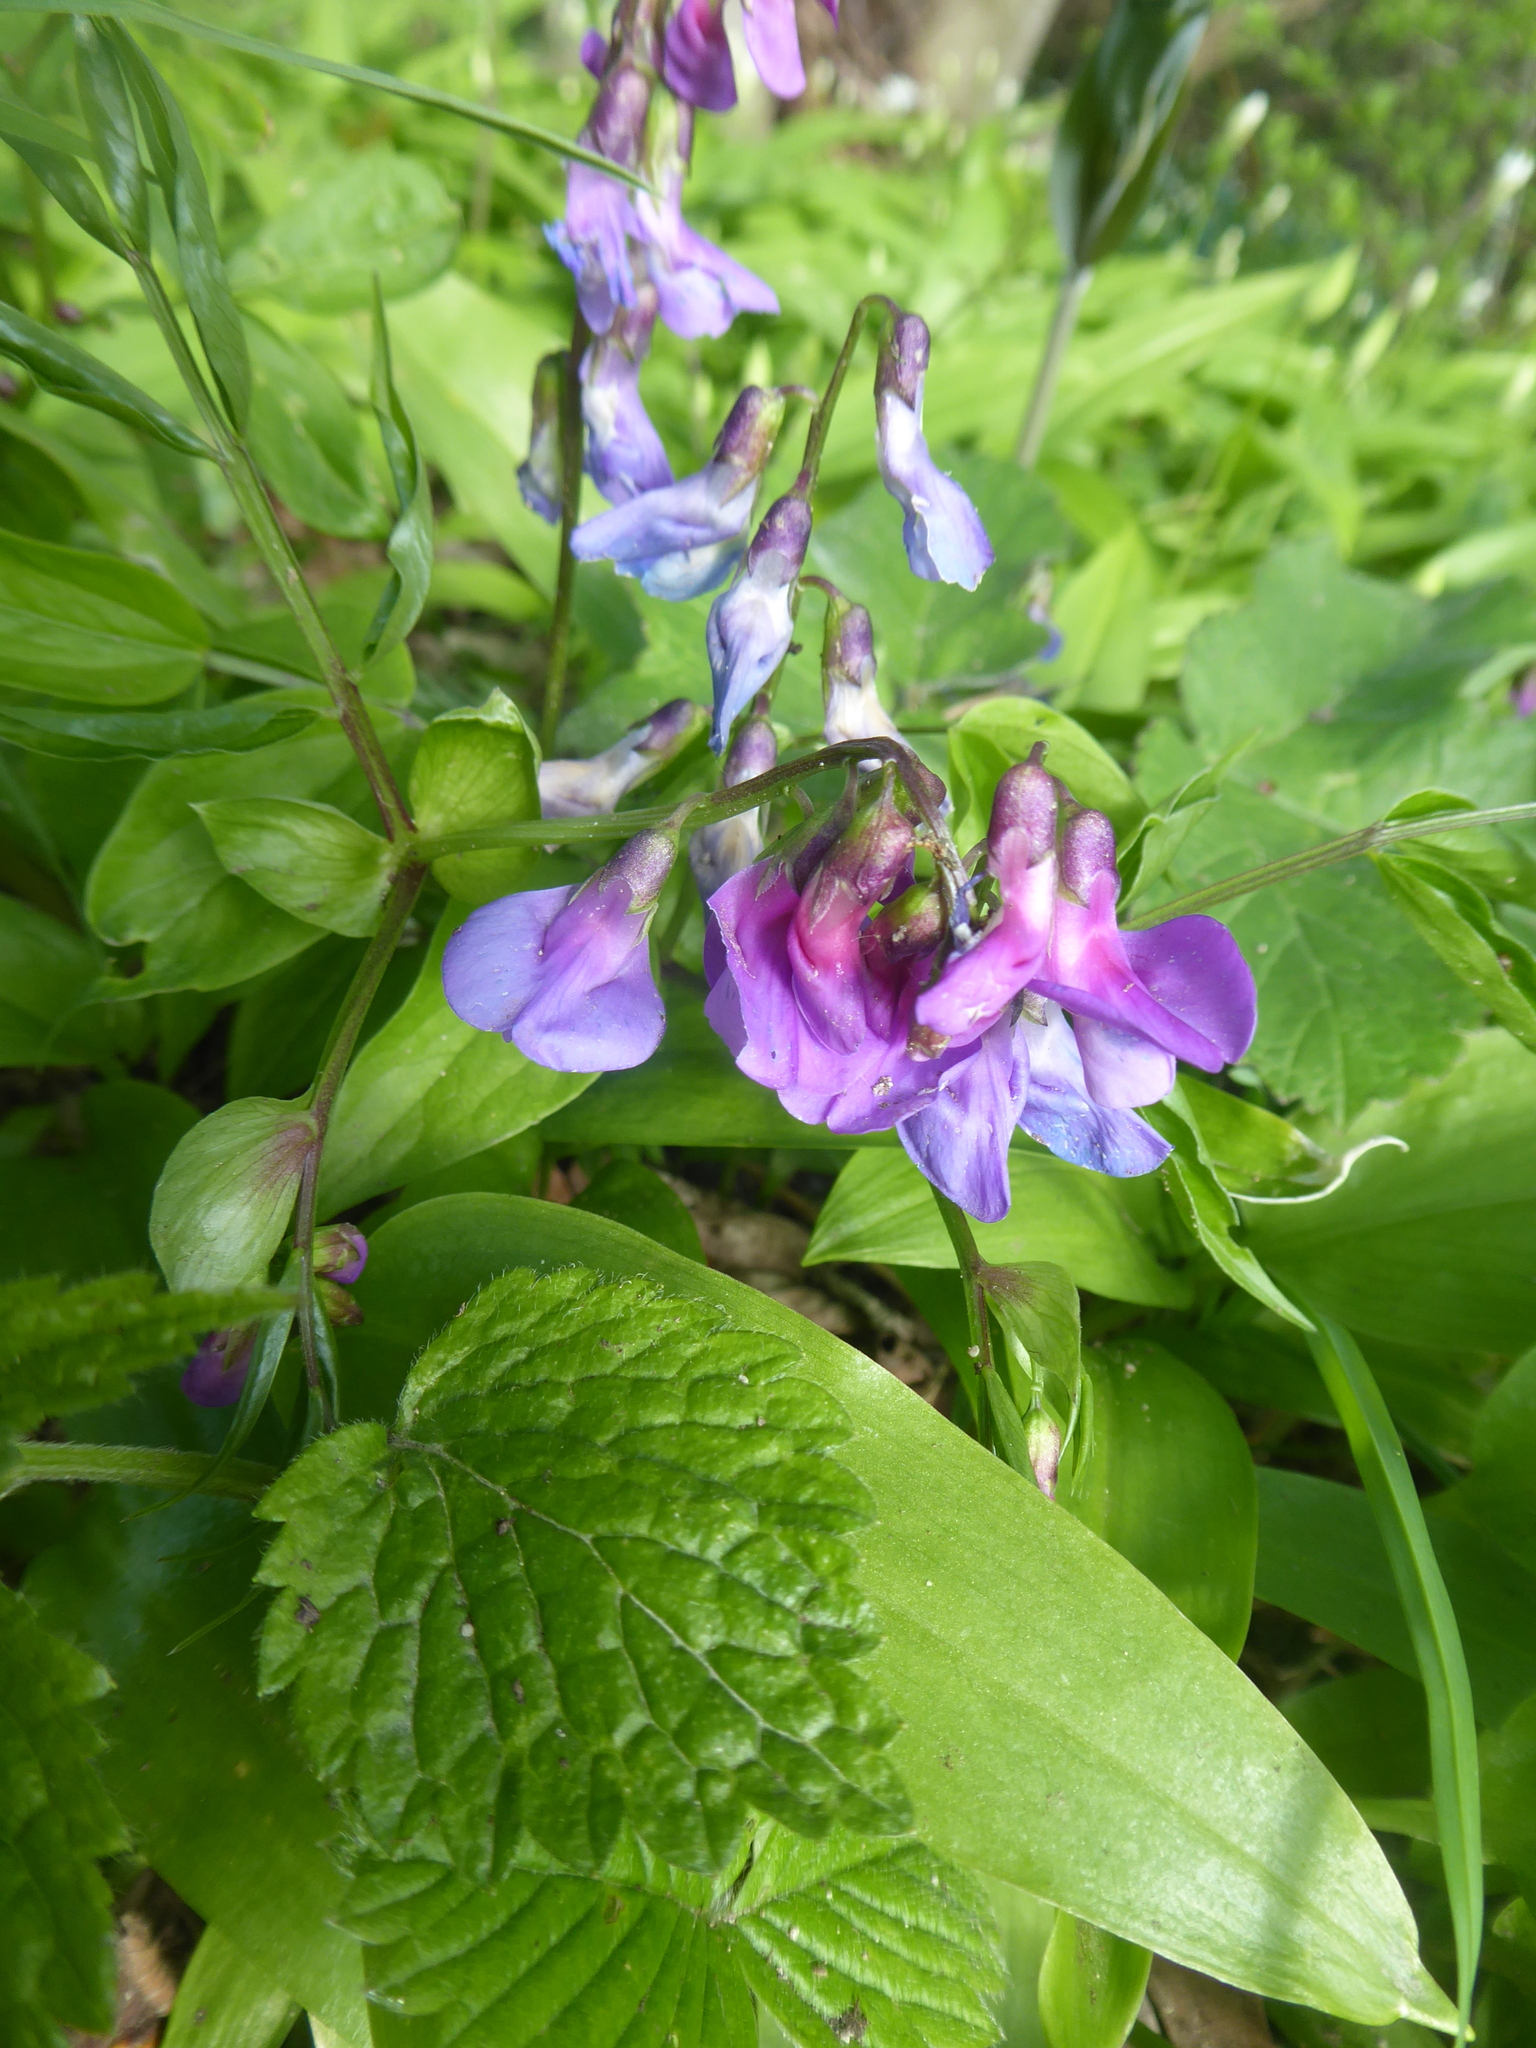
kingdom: Plantae
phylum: Tracheophyta
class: Magnoliopsida
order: Fabales
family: Fabaceae
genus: Lathyrus
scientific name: Lathyrus vernus
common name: Spring pea
